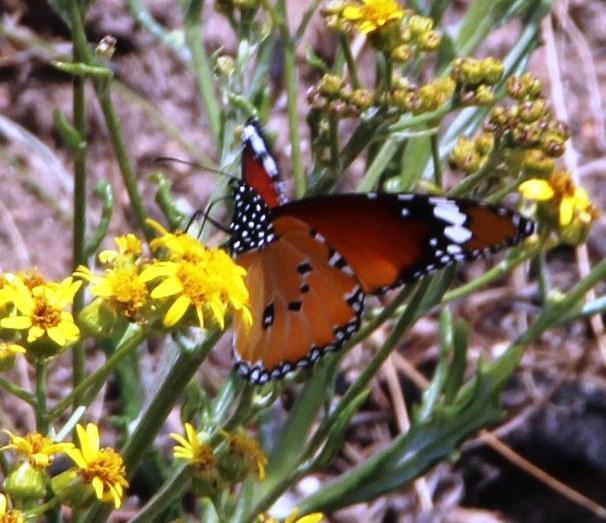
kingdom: Animalia
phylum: Arthropoda
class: Insecta
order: Lepidoptera
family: Nymphalidae
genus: Danaus
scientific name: Danaus chrysippus
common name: Plain tiger
